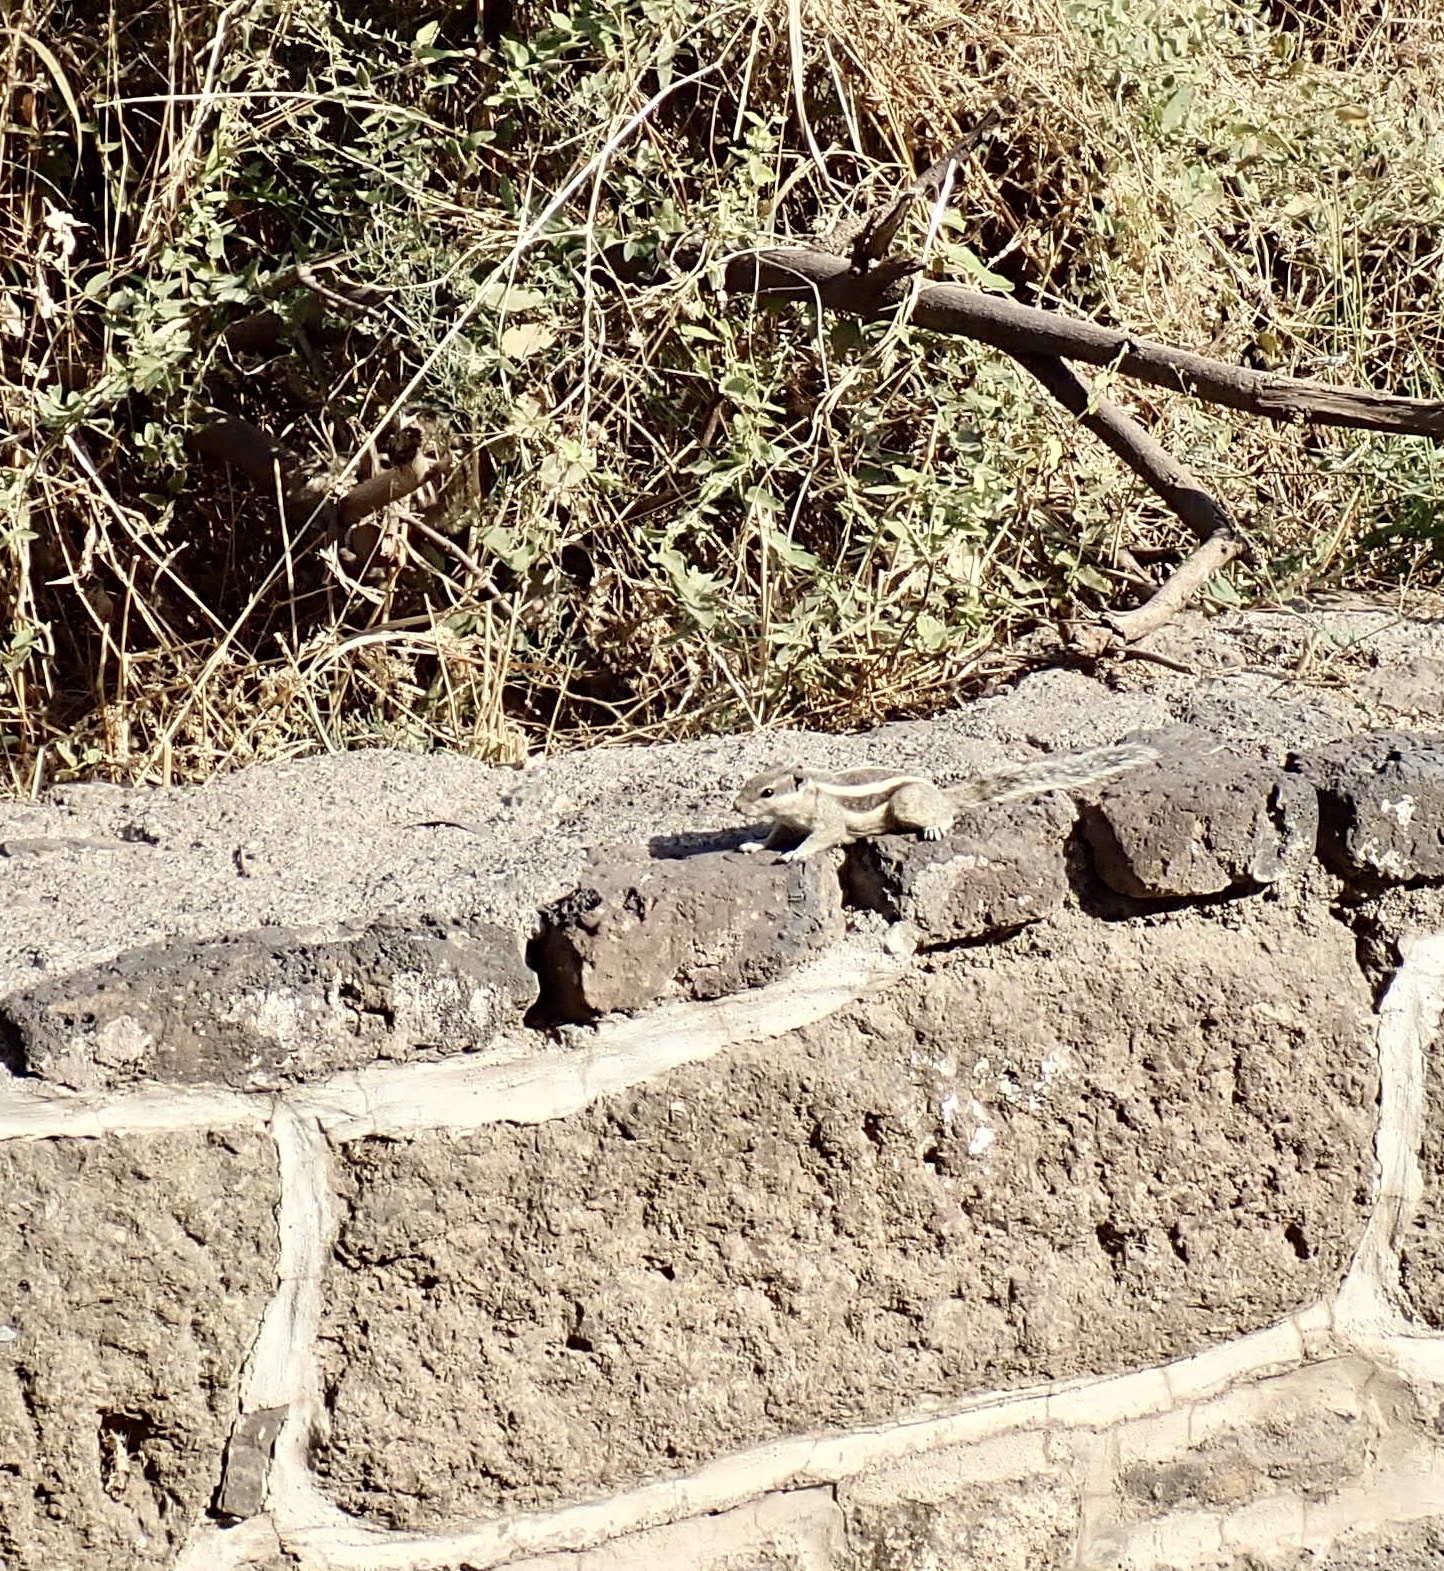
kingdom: Animalia
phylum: Chordata
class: Mammalia
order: Rodentia
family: Sciuridae
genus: Funambulus
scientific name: Funambulus pennantii
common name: Northern palm squirrel
